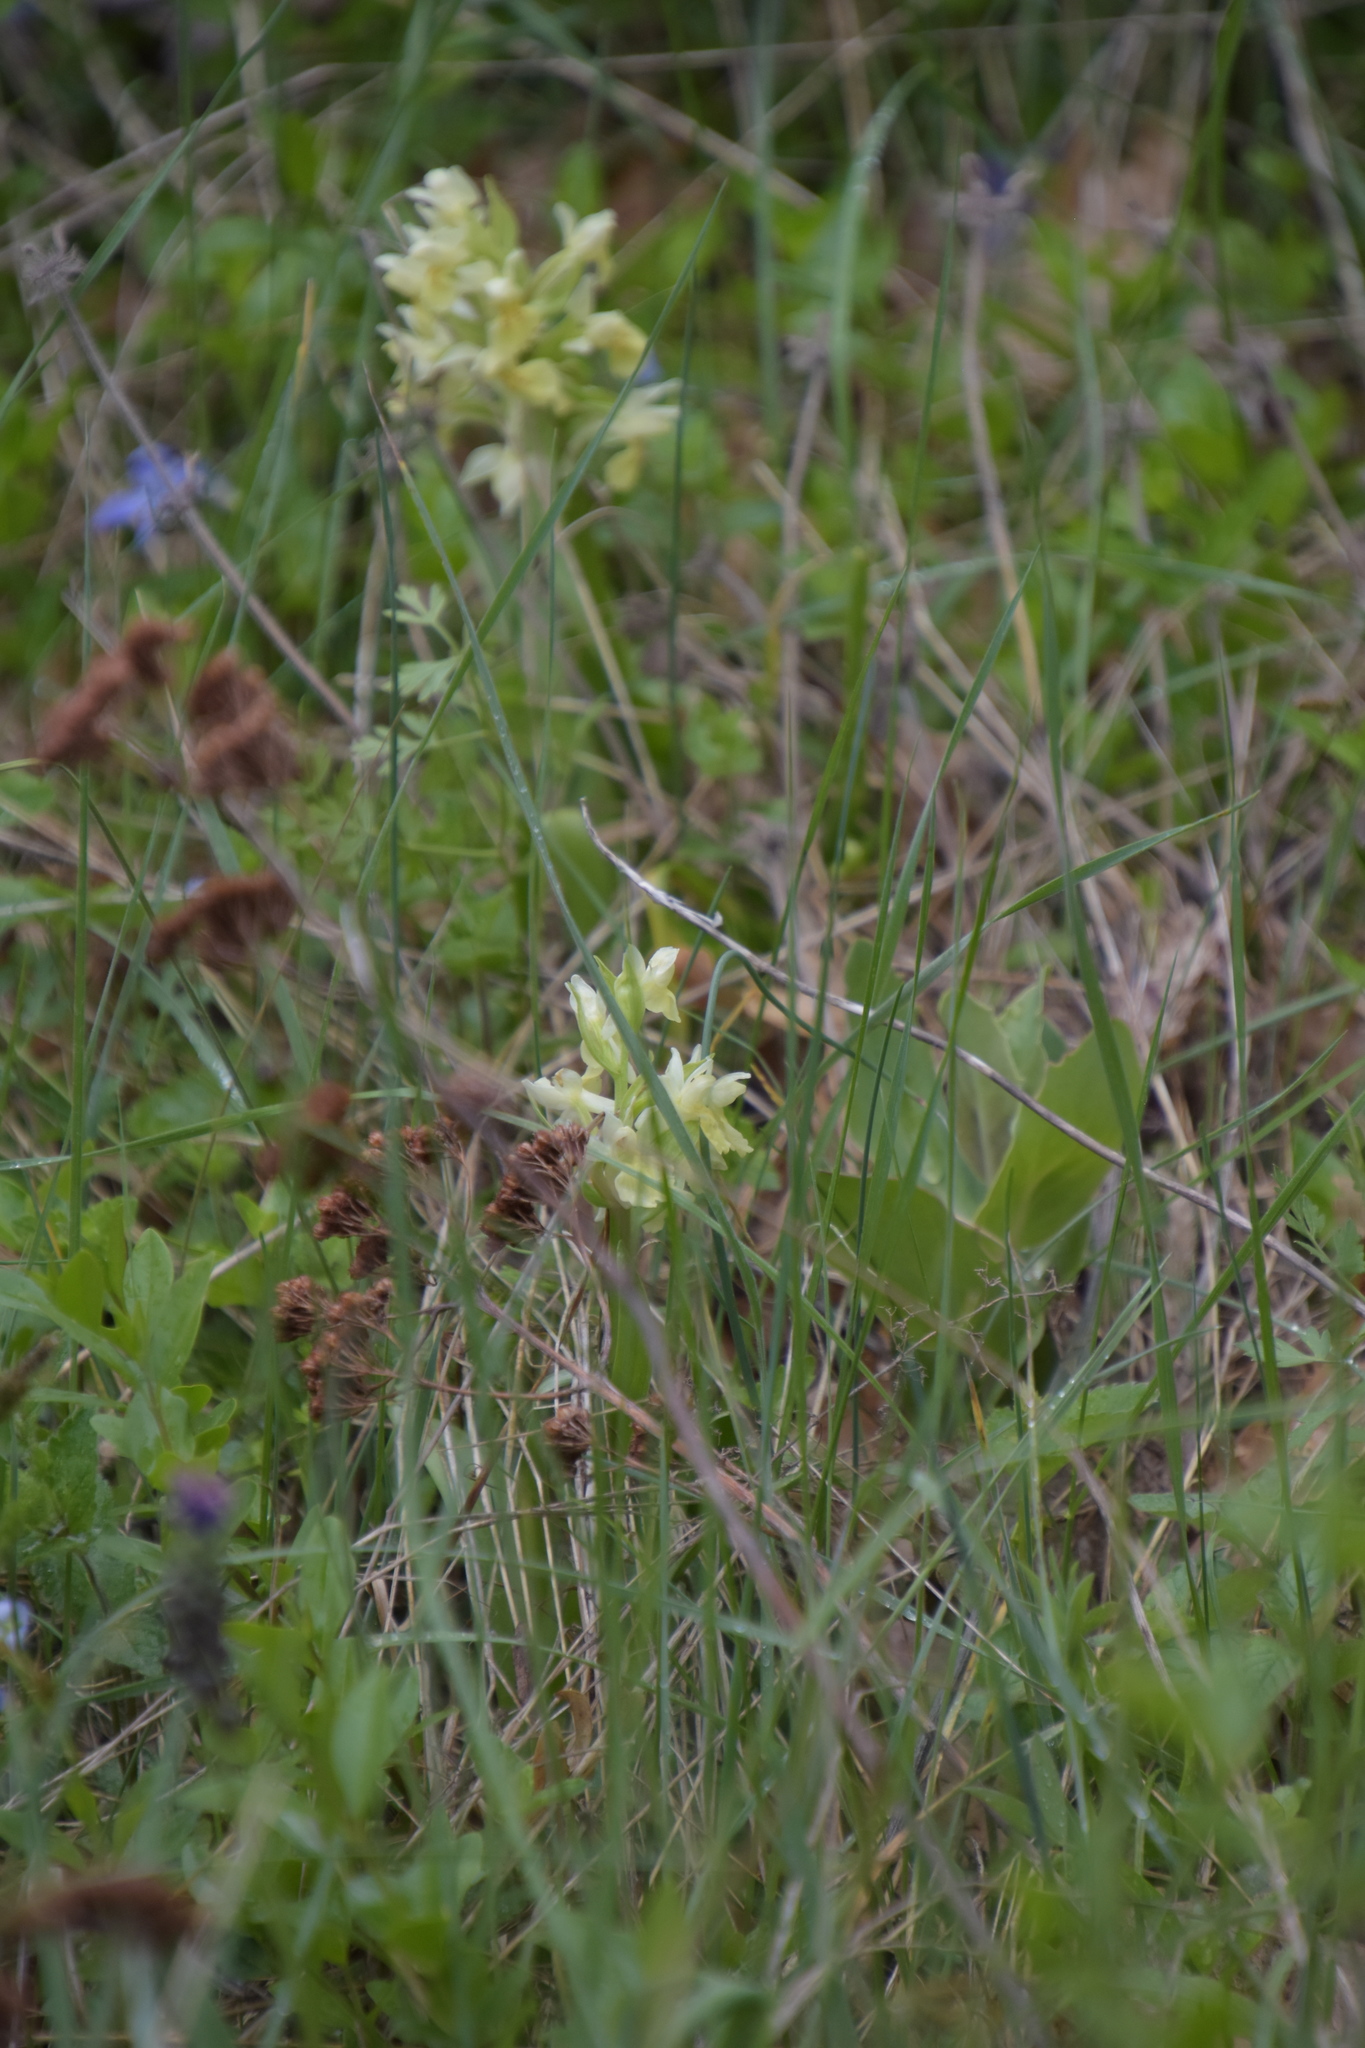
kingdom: Plantae
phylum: Tracheophyta
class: Liliopsida
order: Asparagales
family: Orchidaceae
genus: Dactylorhiza
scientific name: Dactylorhiza sambucina
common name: Elder-flowered orchid
